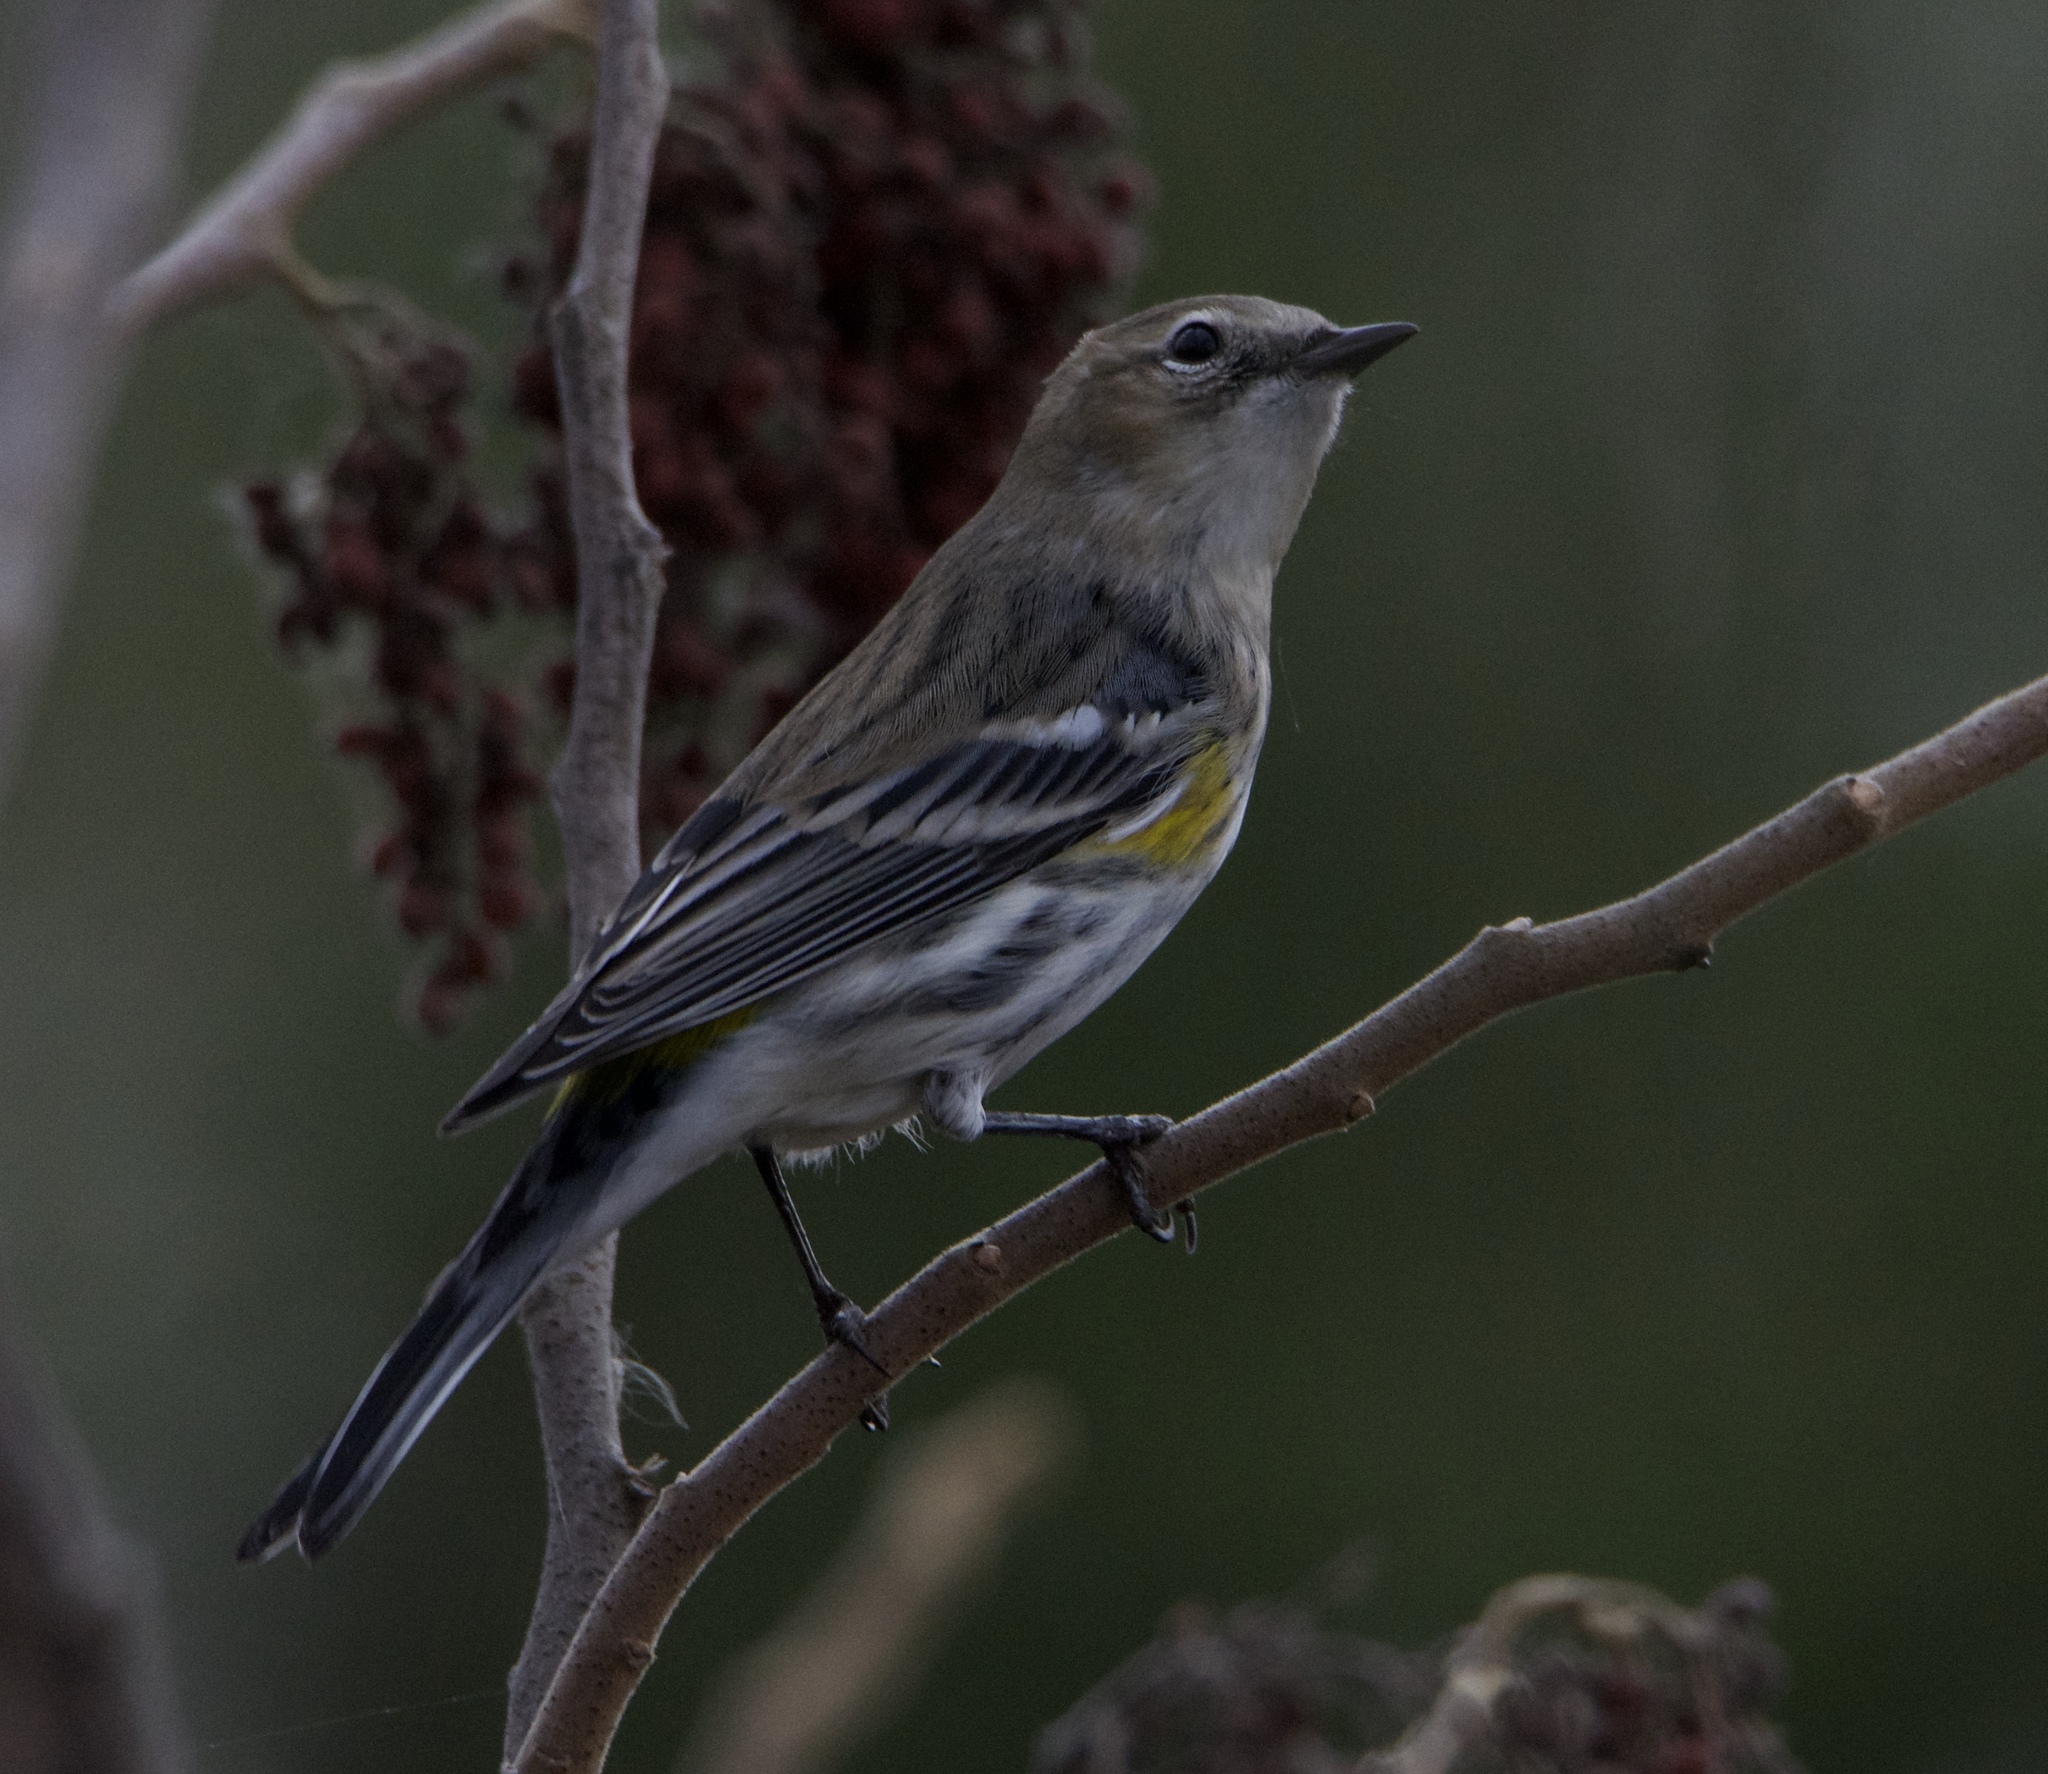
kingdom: Animalia
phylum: Chordata
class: Aves
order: Passeriformes
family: Parulidae
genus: Setophaga
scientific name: Setophaga coronata
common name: Myrtle warbler
